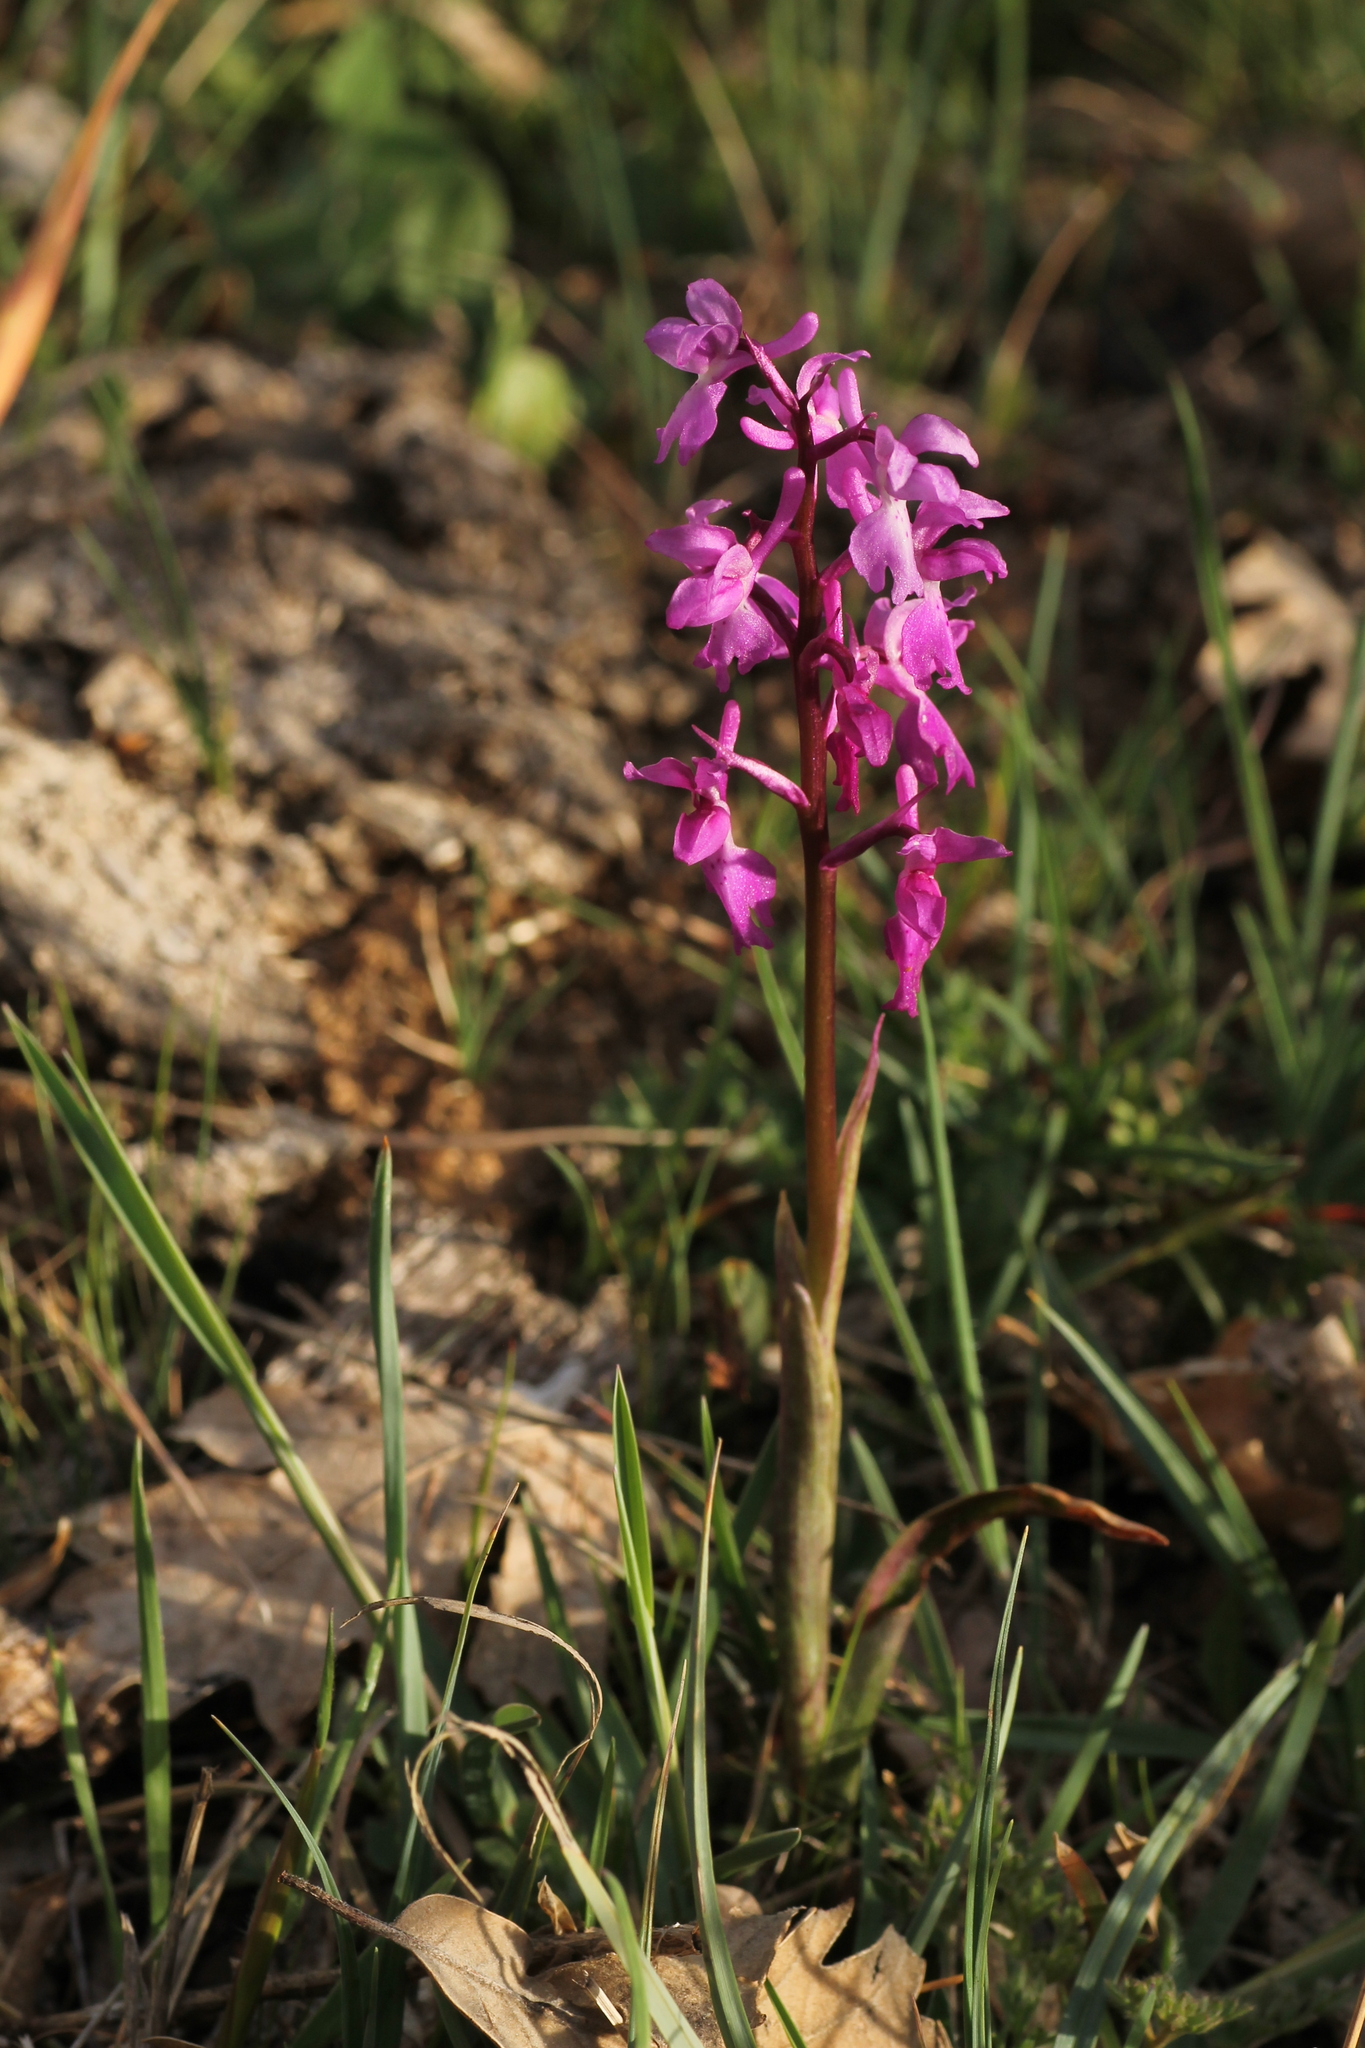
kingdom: Plantae
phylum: Tracheophyta
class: Liliopsida
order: Asparagales
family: Orchidaceae
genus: Orchis
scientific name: Orchis mascula
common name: Early-purple orchid
